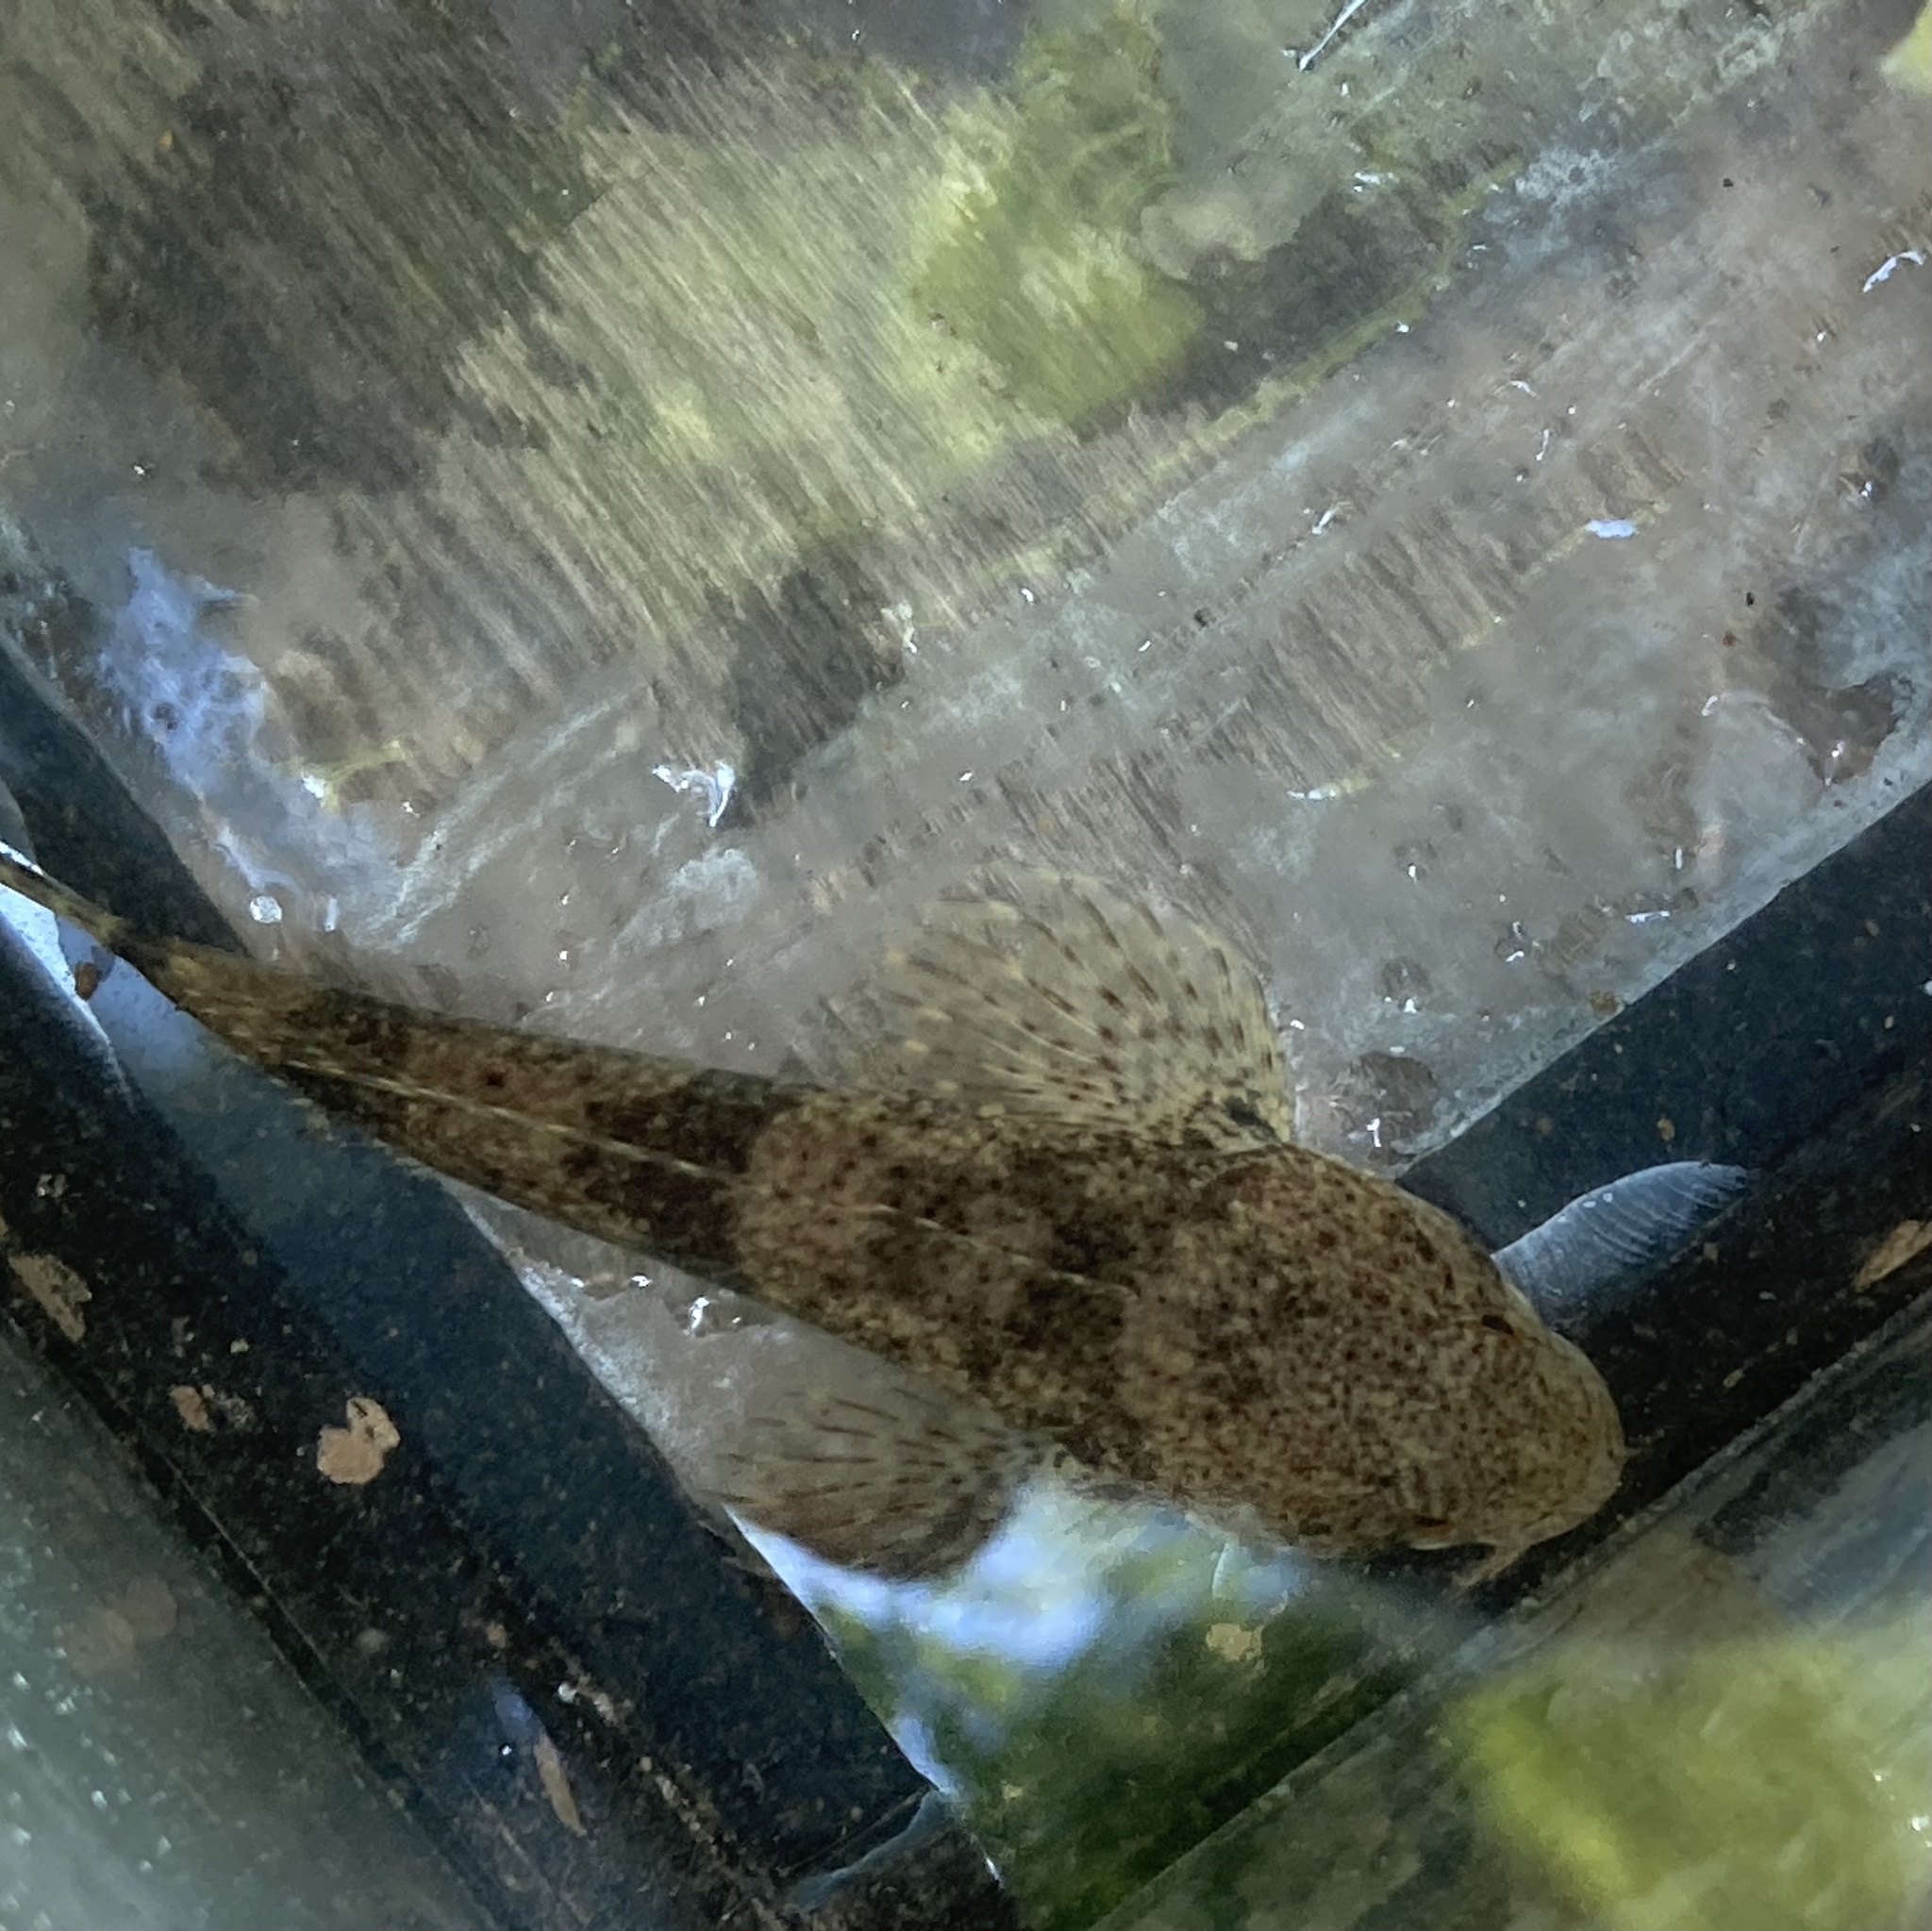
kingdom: Animalia
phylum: Chordata
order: Scorpaeniformes
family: Cottidae
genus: Cottus
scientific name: Cottus bairdii
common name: Mottled sculpin
